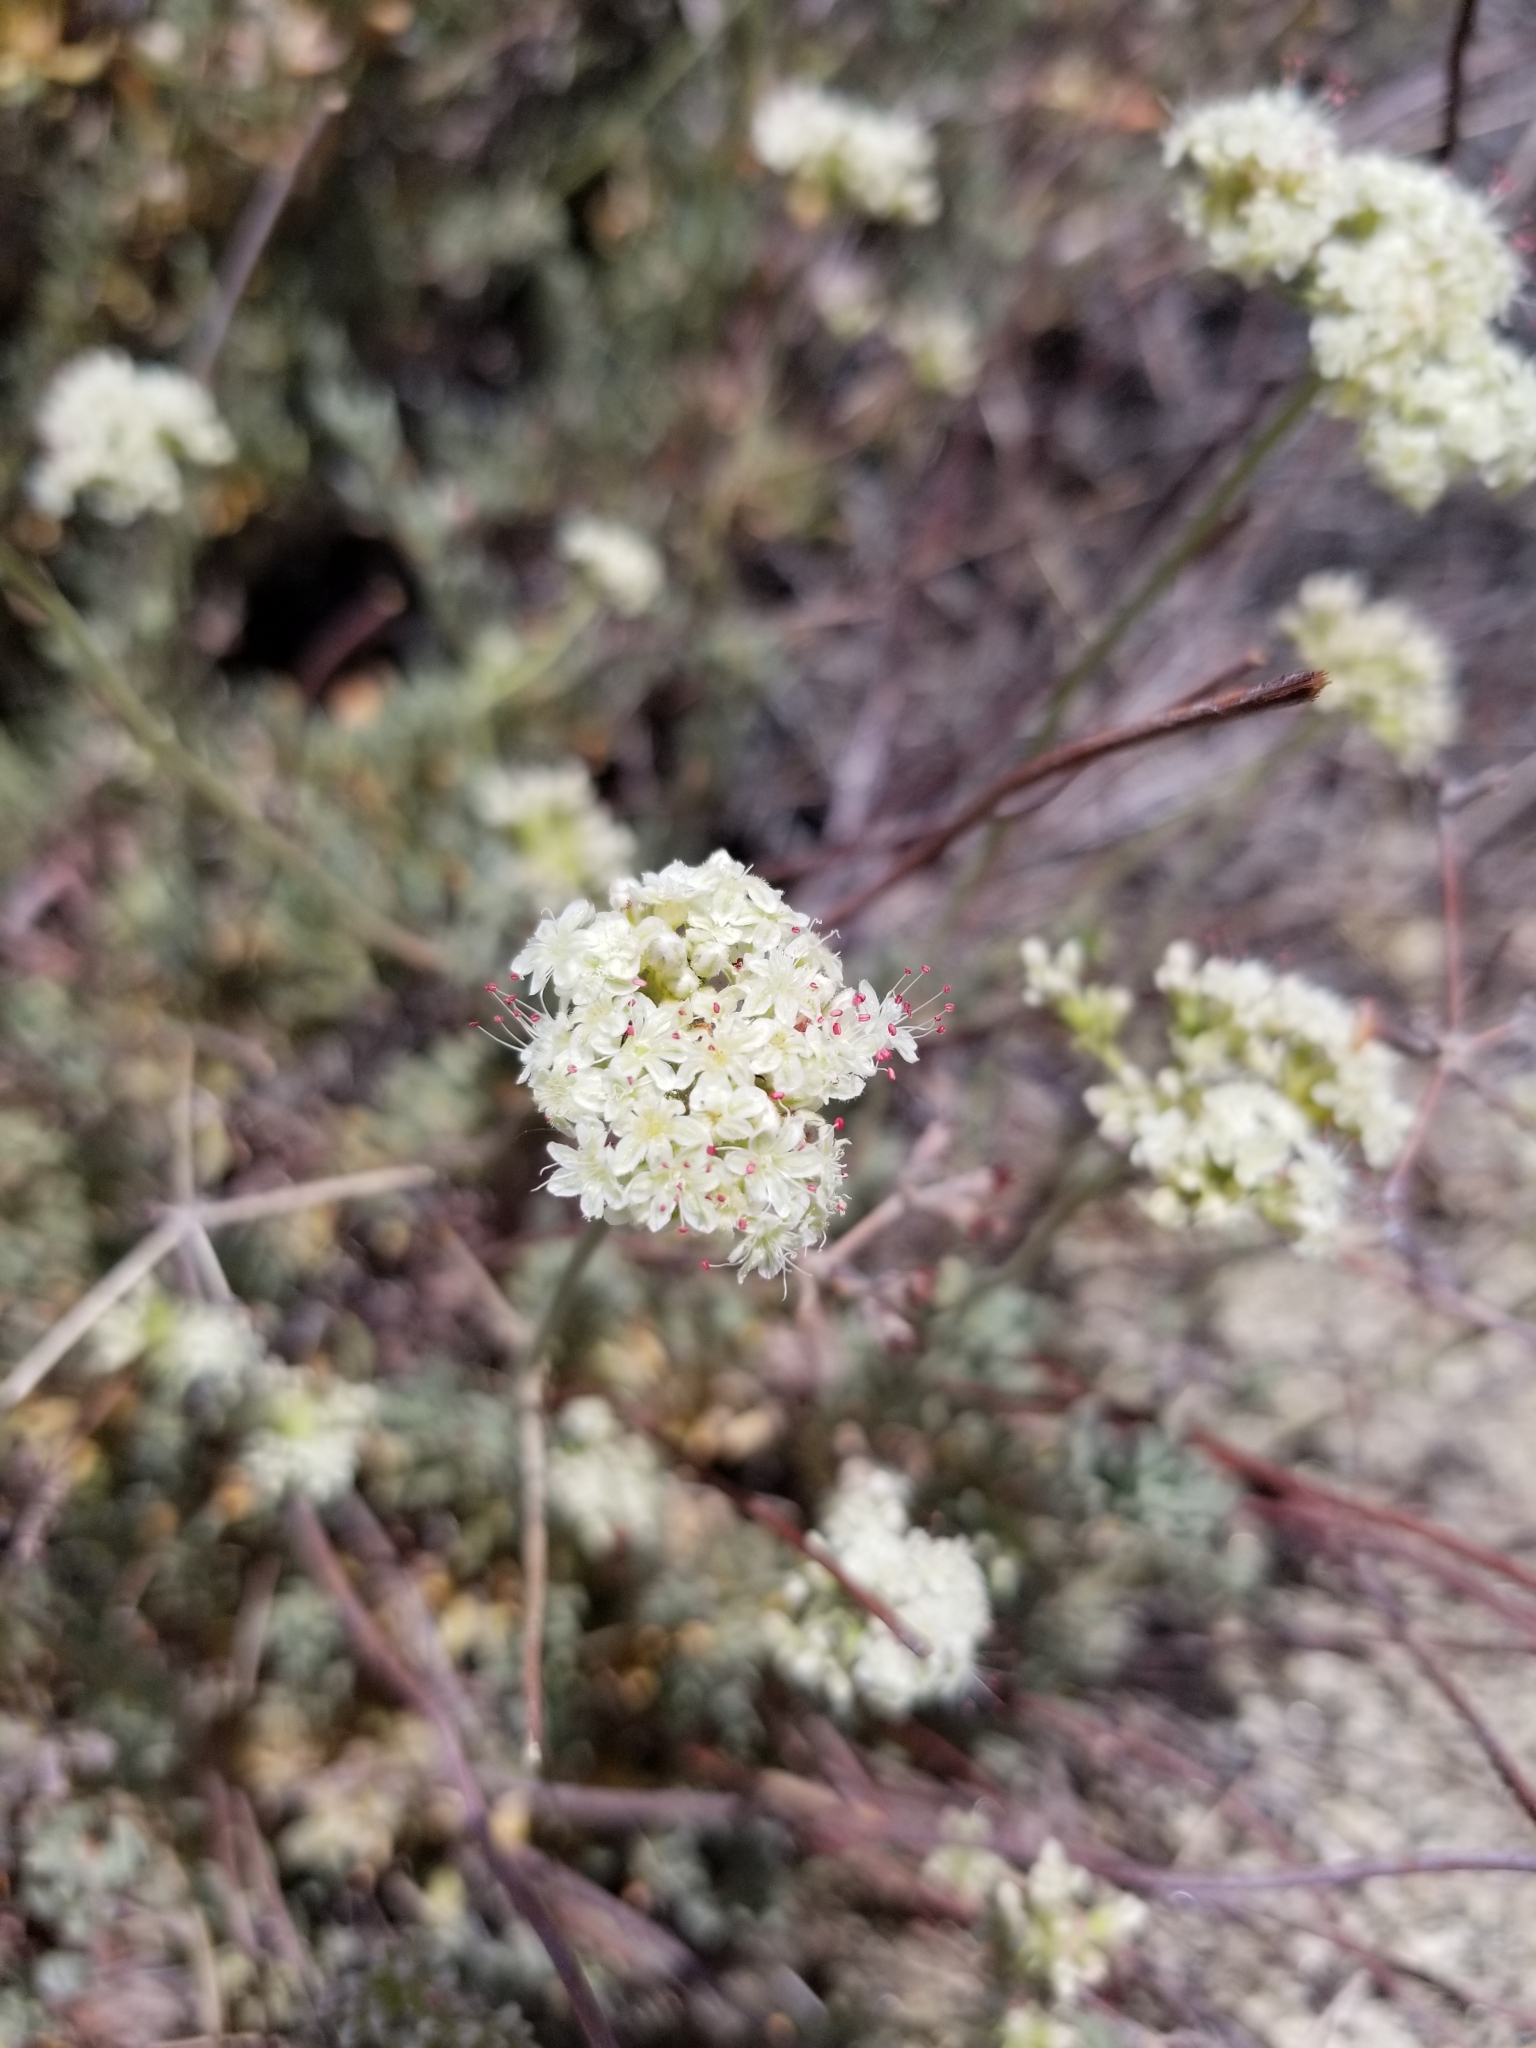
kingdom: Plantae
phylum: Tracheophyta
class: Magnoliopsida
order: Caryophyllales
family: Polygonaceae
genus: Eriogonum
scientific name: Eriogonum fasciculatum
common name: California wild buckwheat
